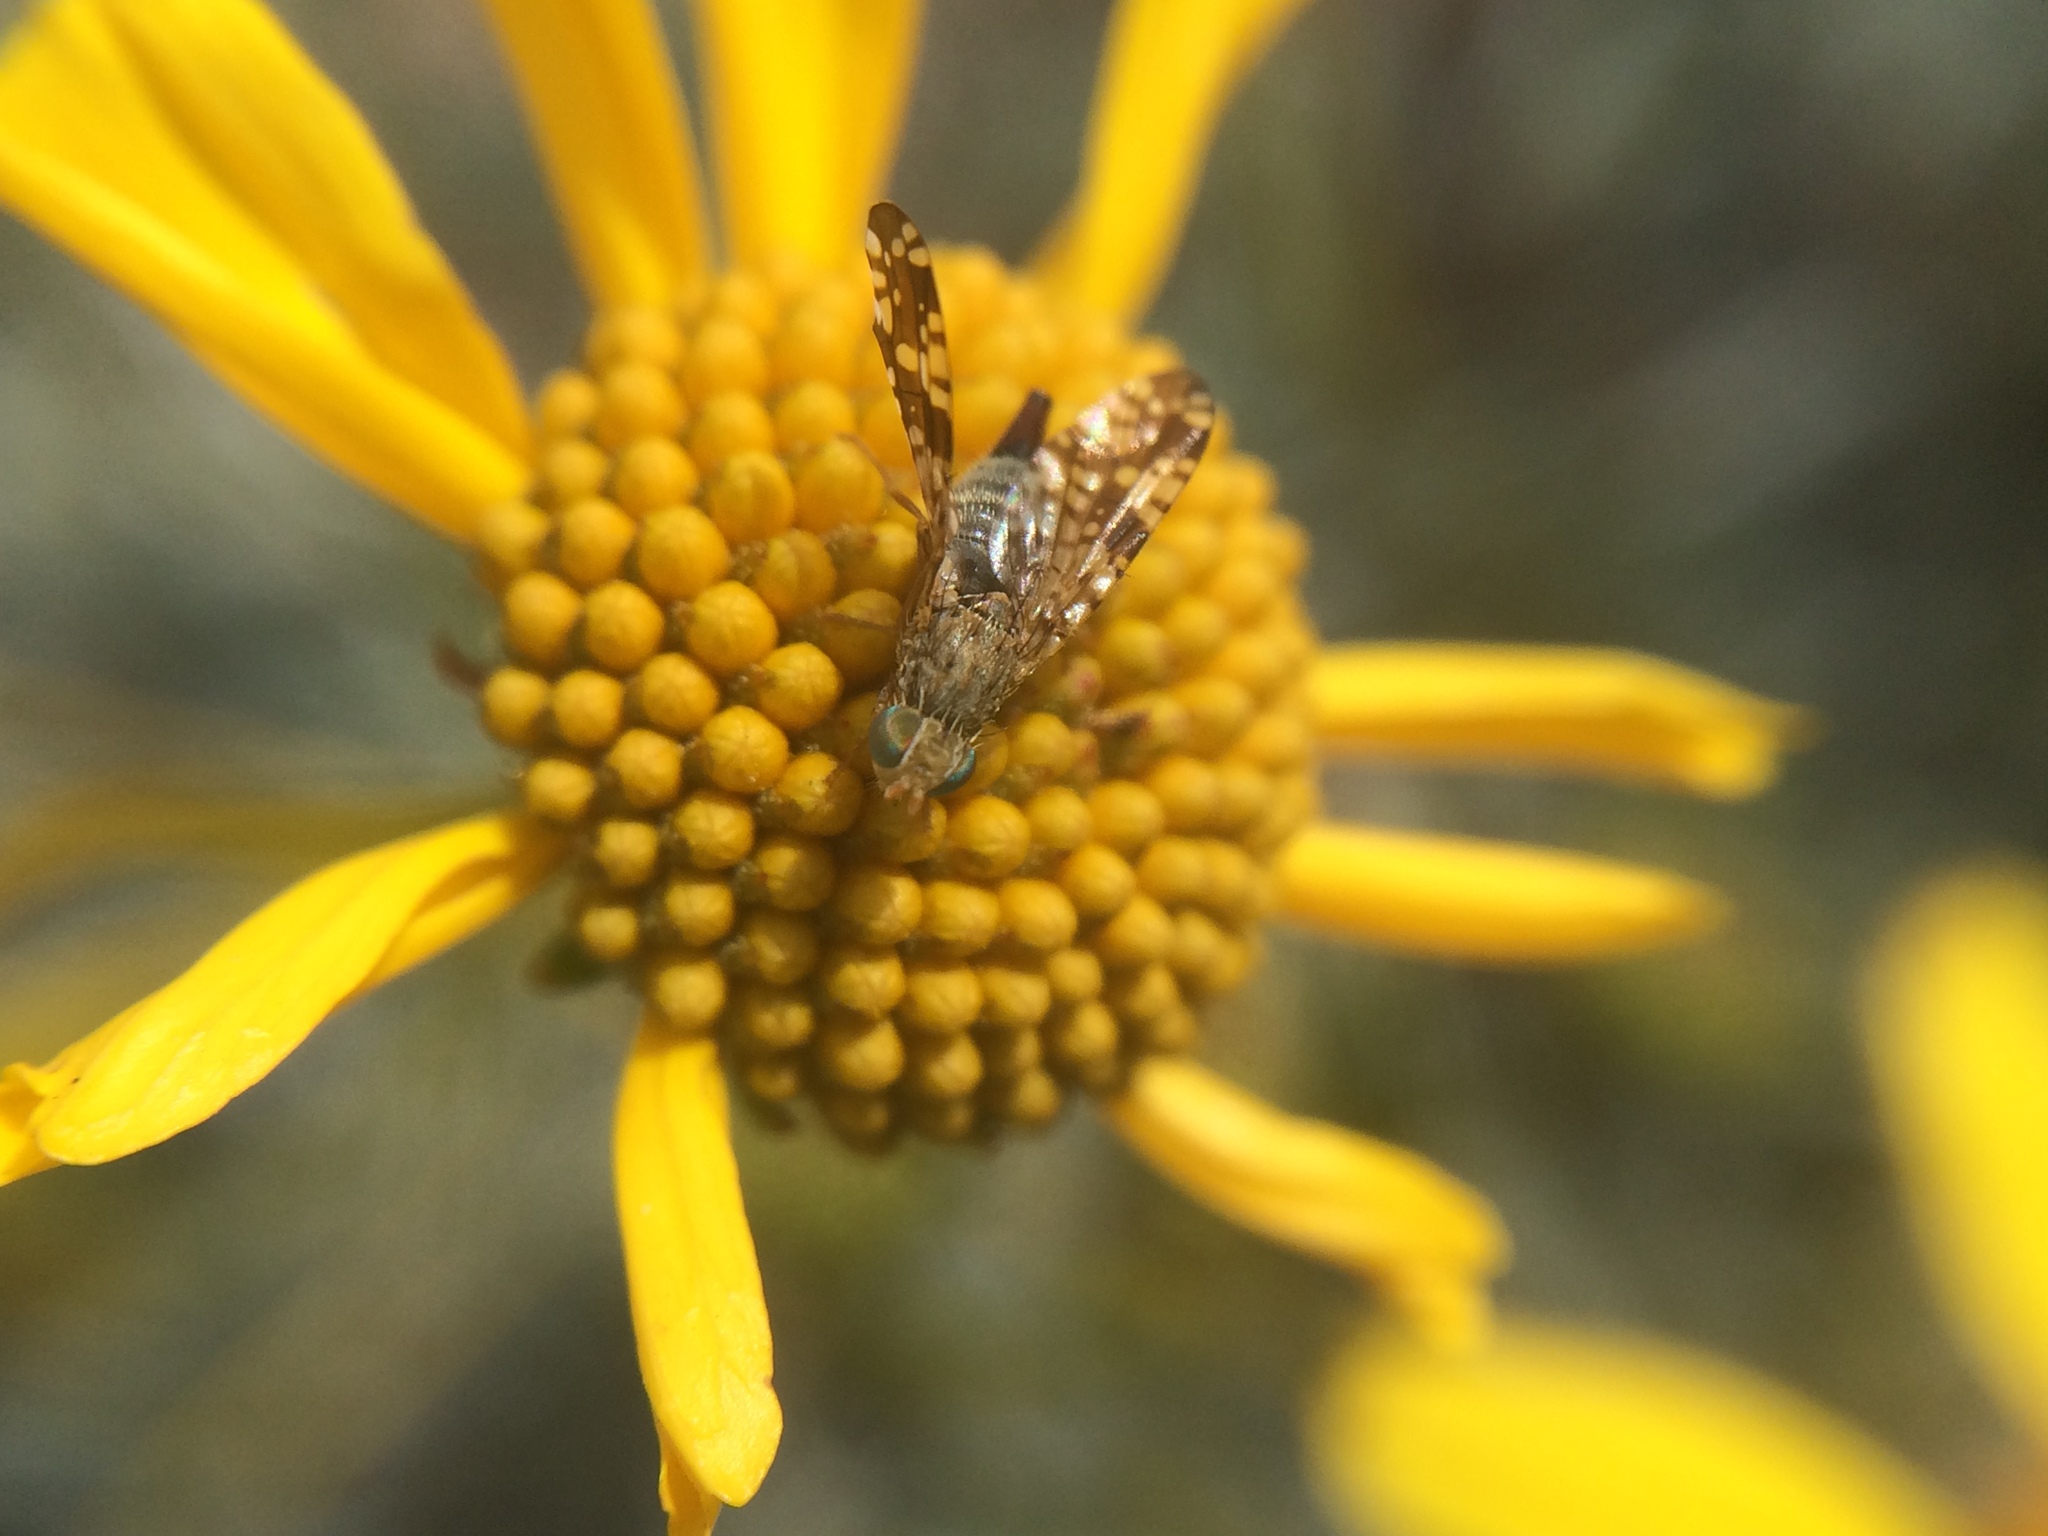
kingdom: Animalia
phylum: Arthropoda
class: Insecta
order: Diptera
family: Tephritidae
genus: Neotephritis
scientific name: Neotephritis finalis
